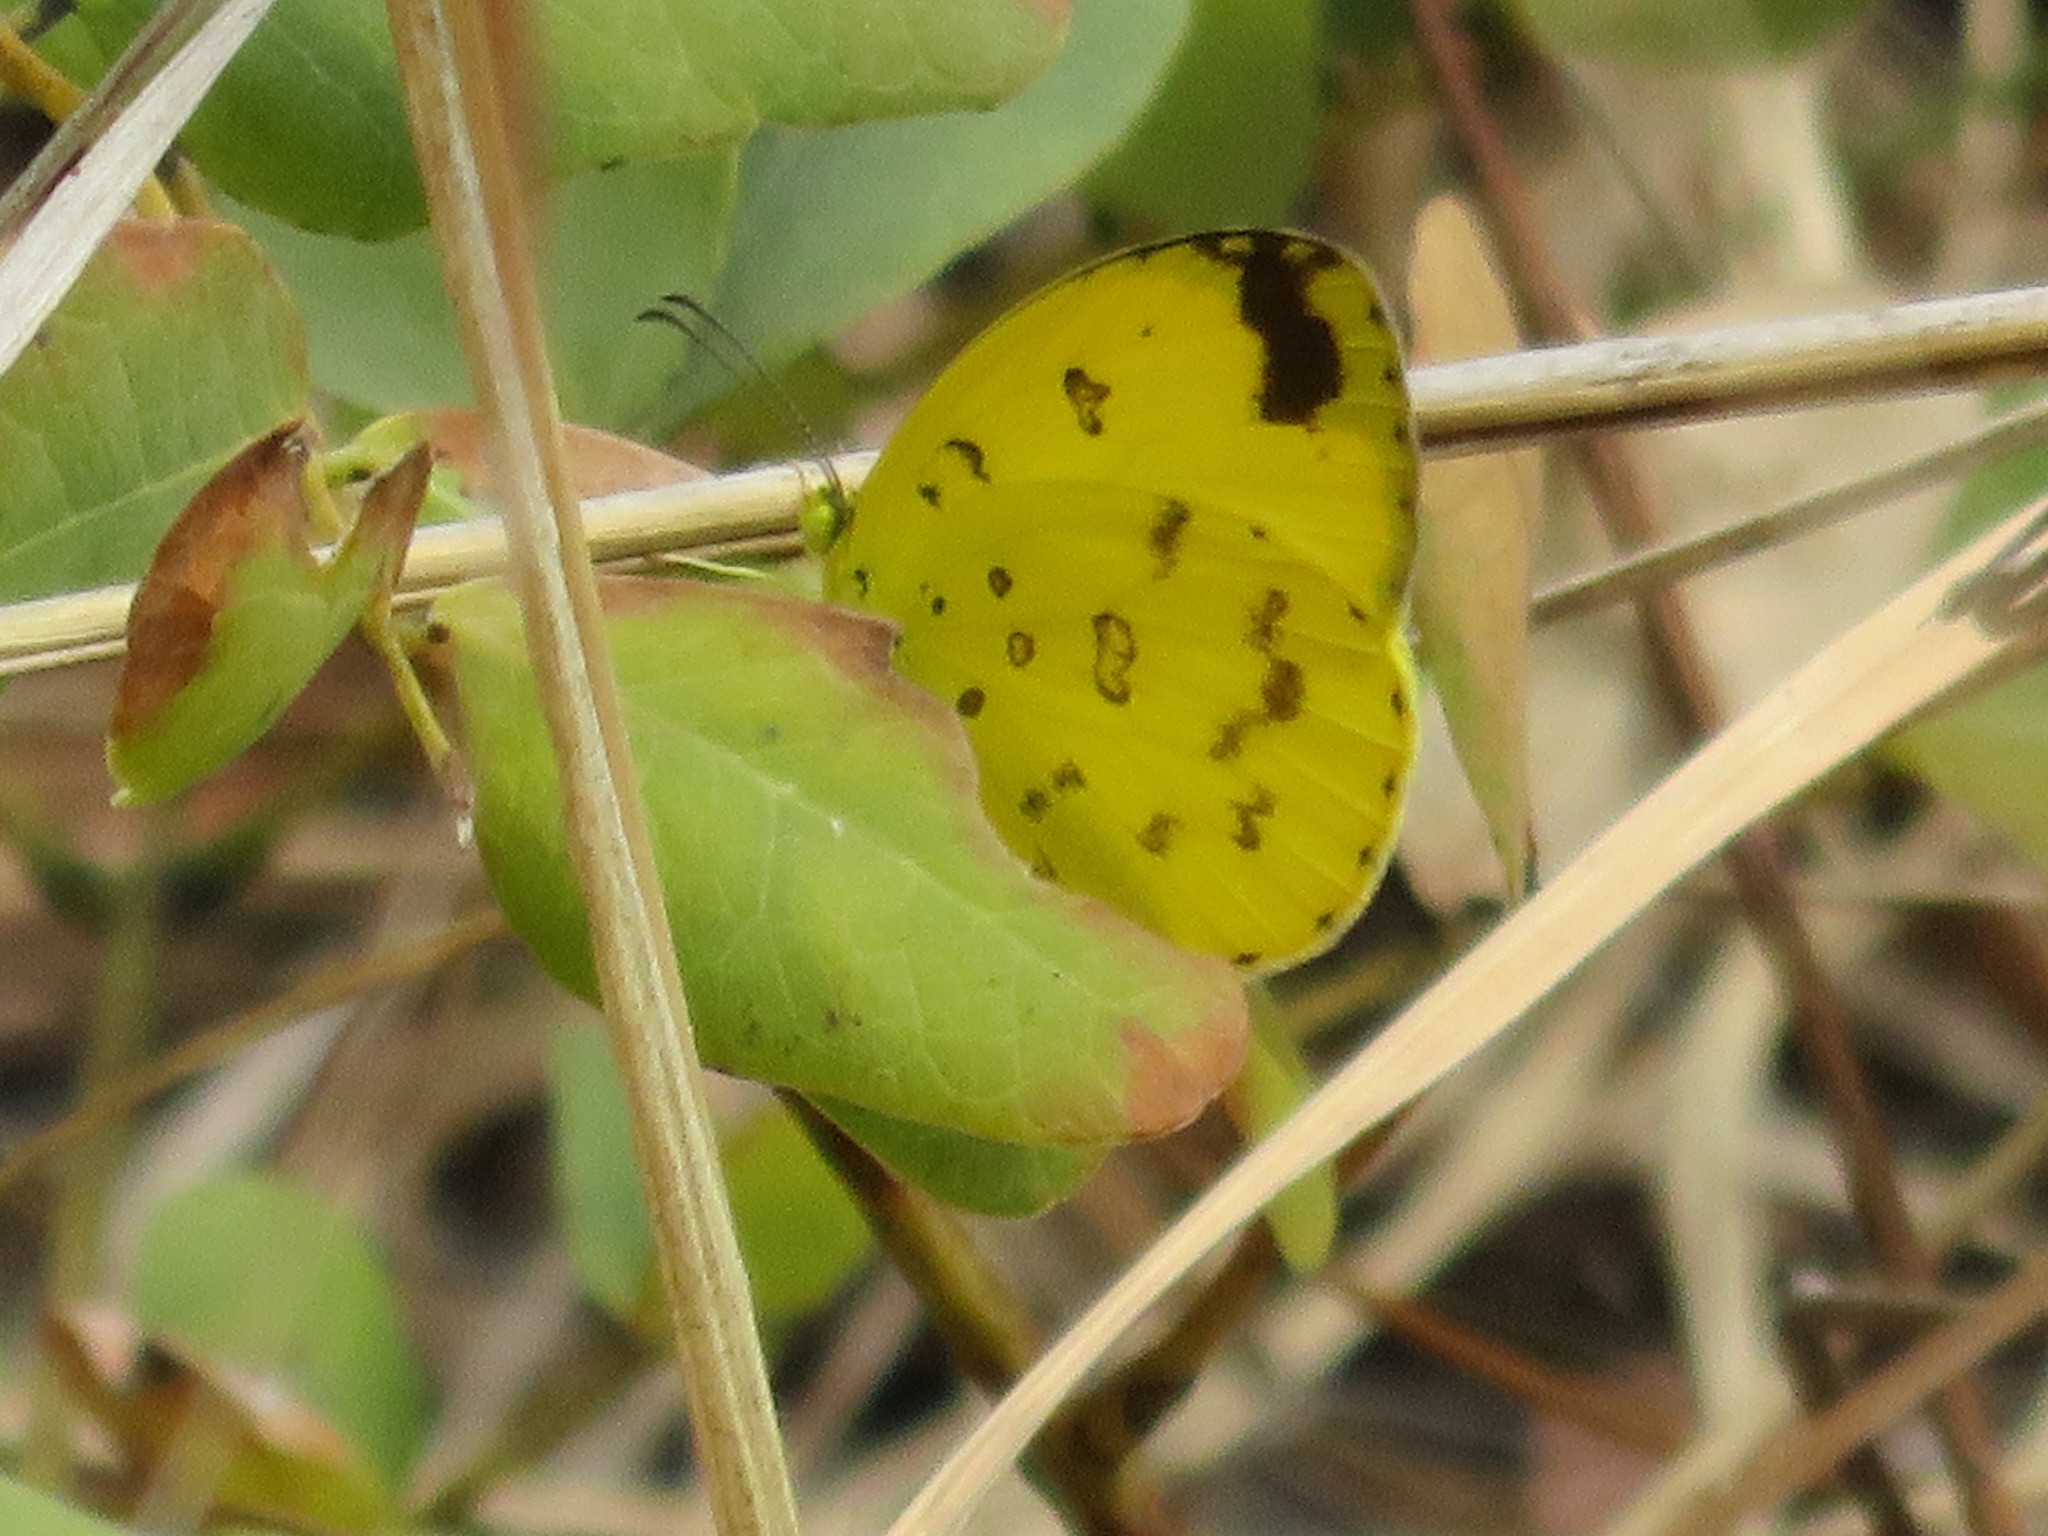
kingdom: Animalia
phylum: Arthropoda
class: Insecta
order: Lepidoptera
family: Pieridae
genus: Eurema
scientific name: Eurema hecabe
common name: Pale grass yellow
